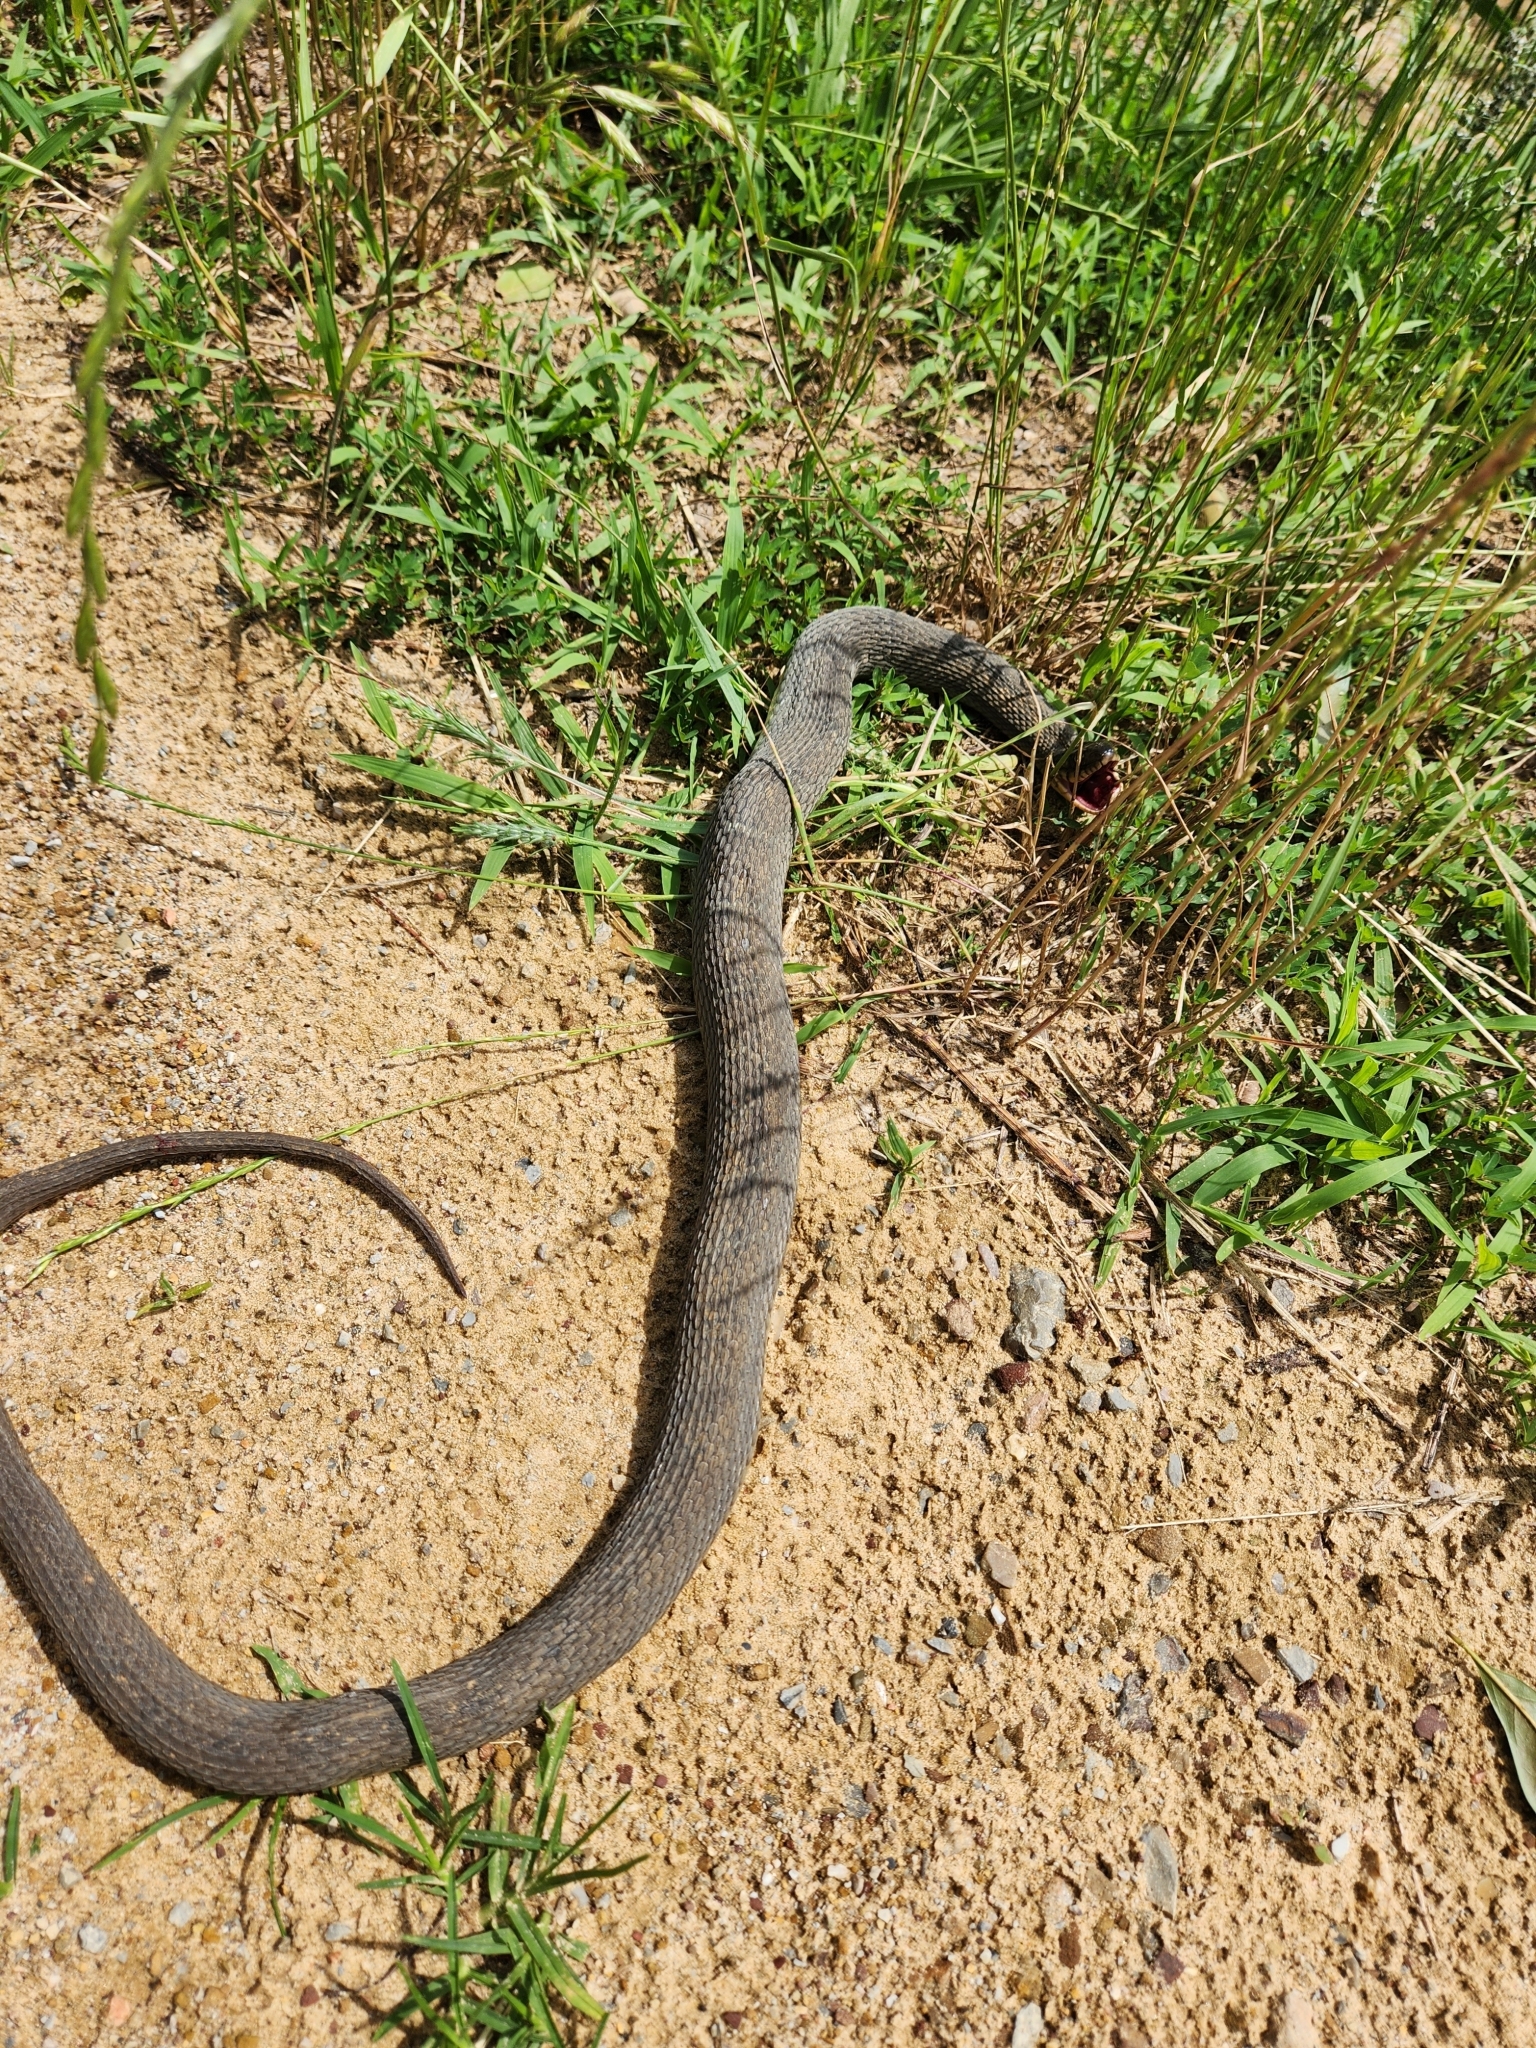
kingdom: Animalia
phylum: Chordata
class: Squamata
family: Colubridae
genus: Nerodia
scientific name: Nerodia erythrogaster
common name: Plainbelly water snake
